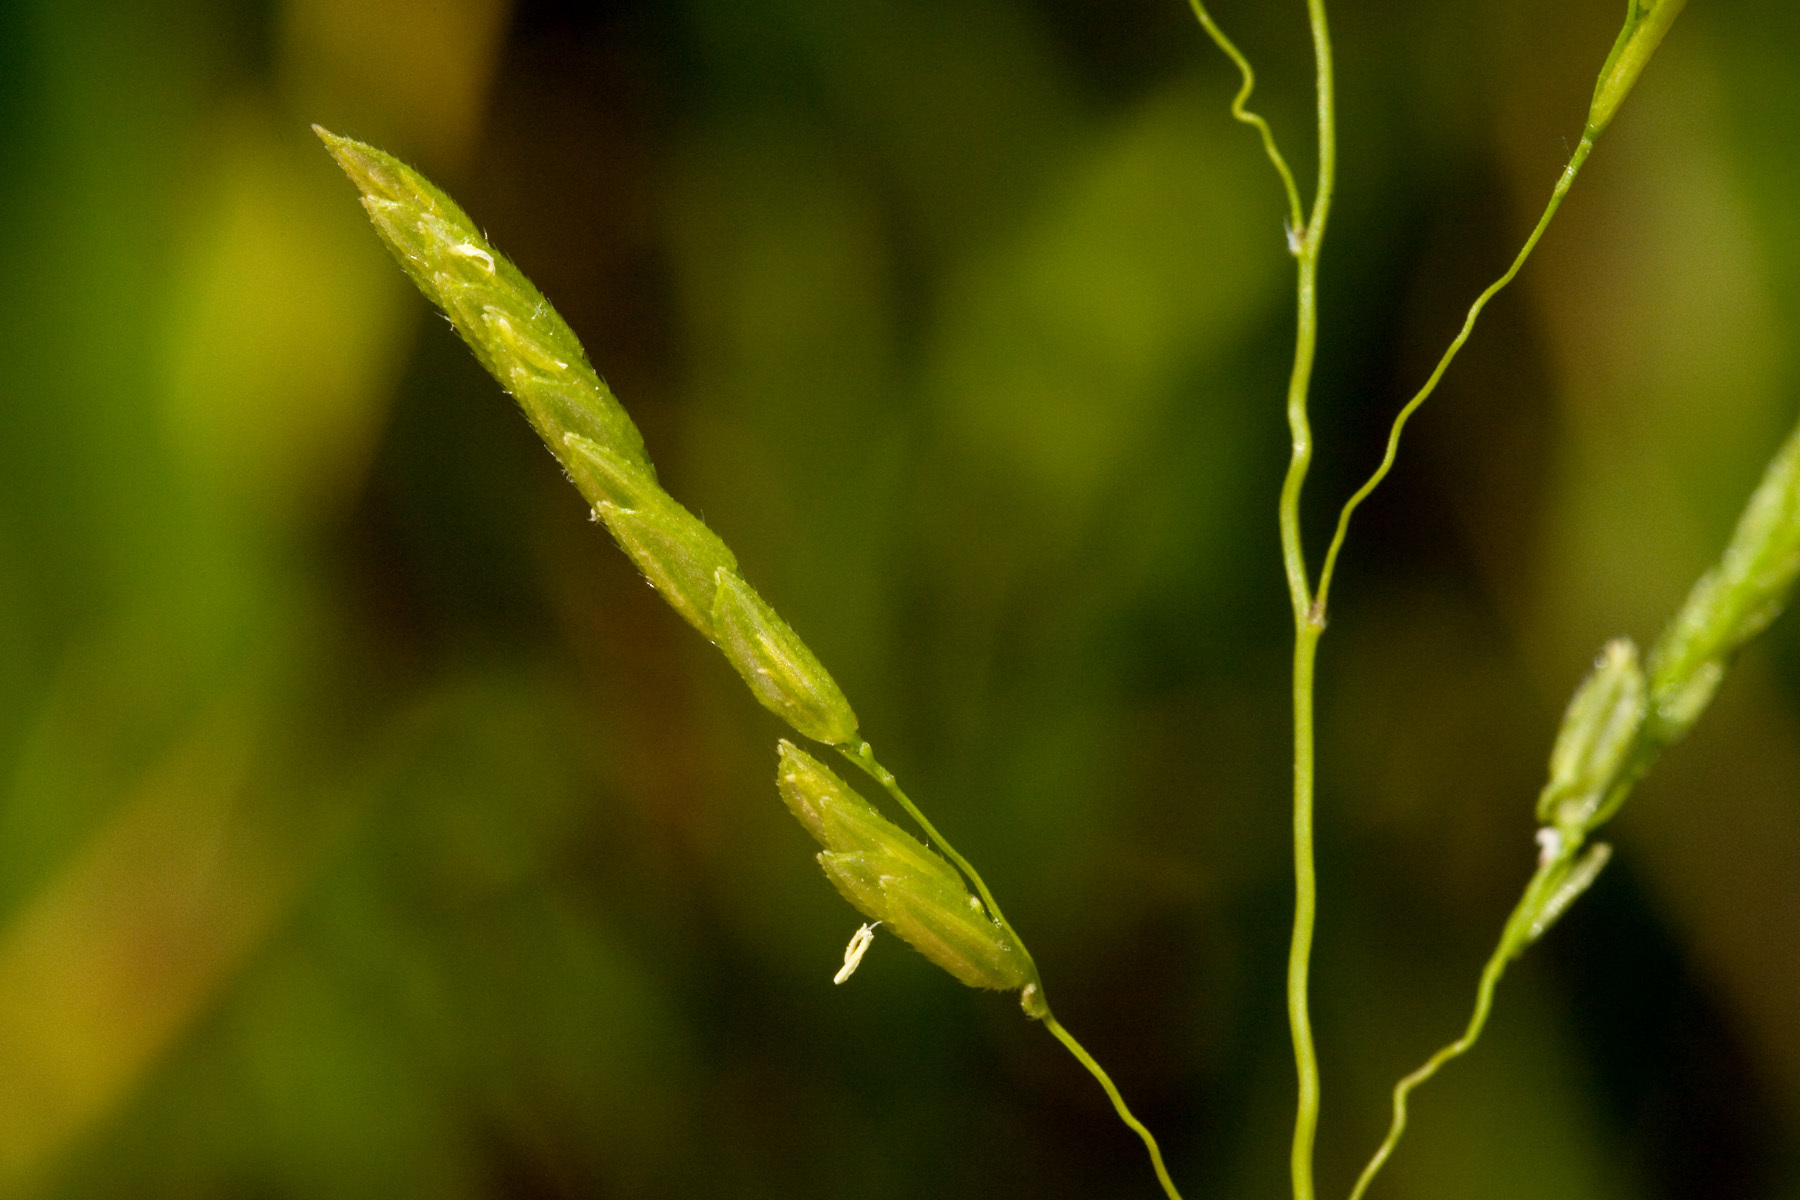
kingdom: Plantae
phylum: Tracheophyta
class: Liliopsida
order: Poales
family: Poaceae
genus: Leersia
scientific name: Leersia oryzoides
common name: Cut-grass
